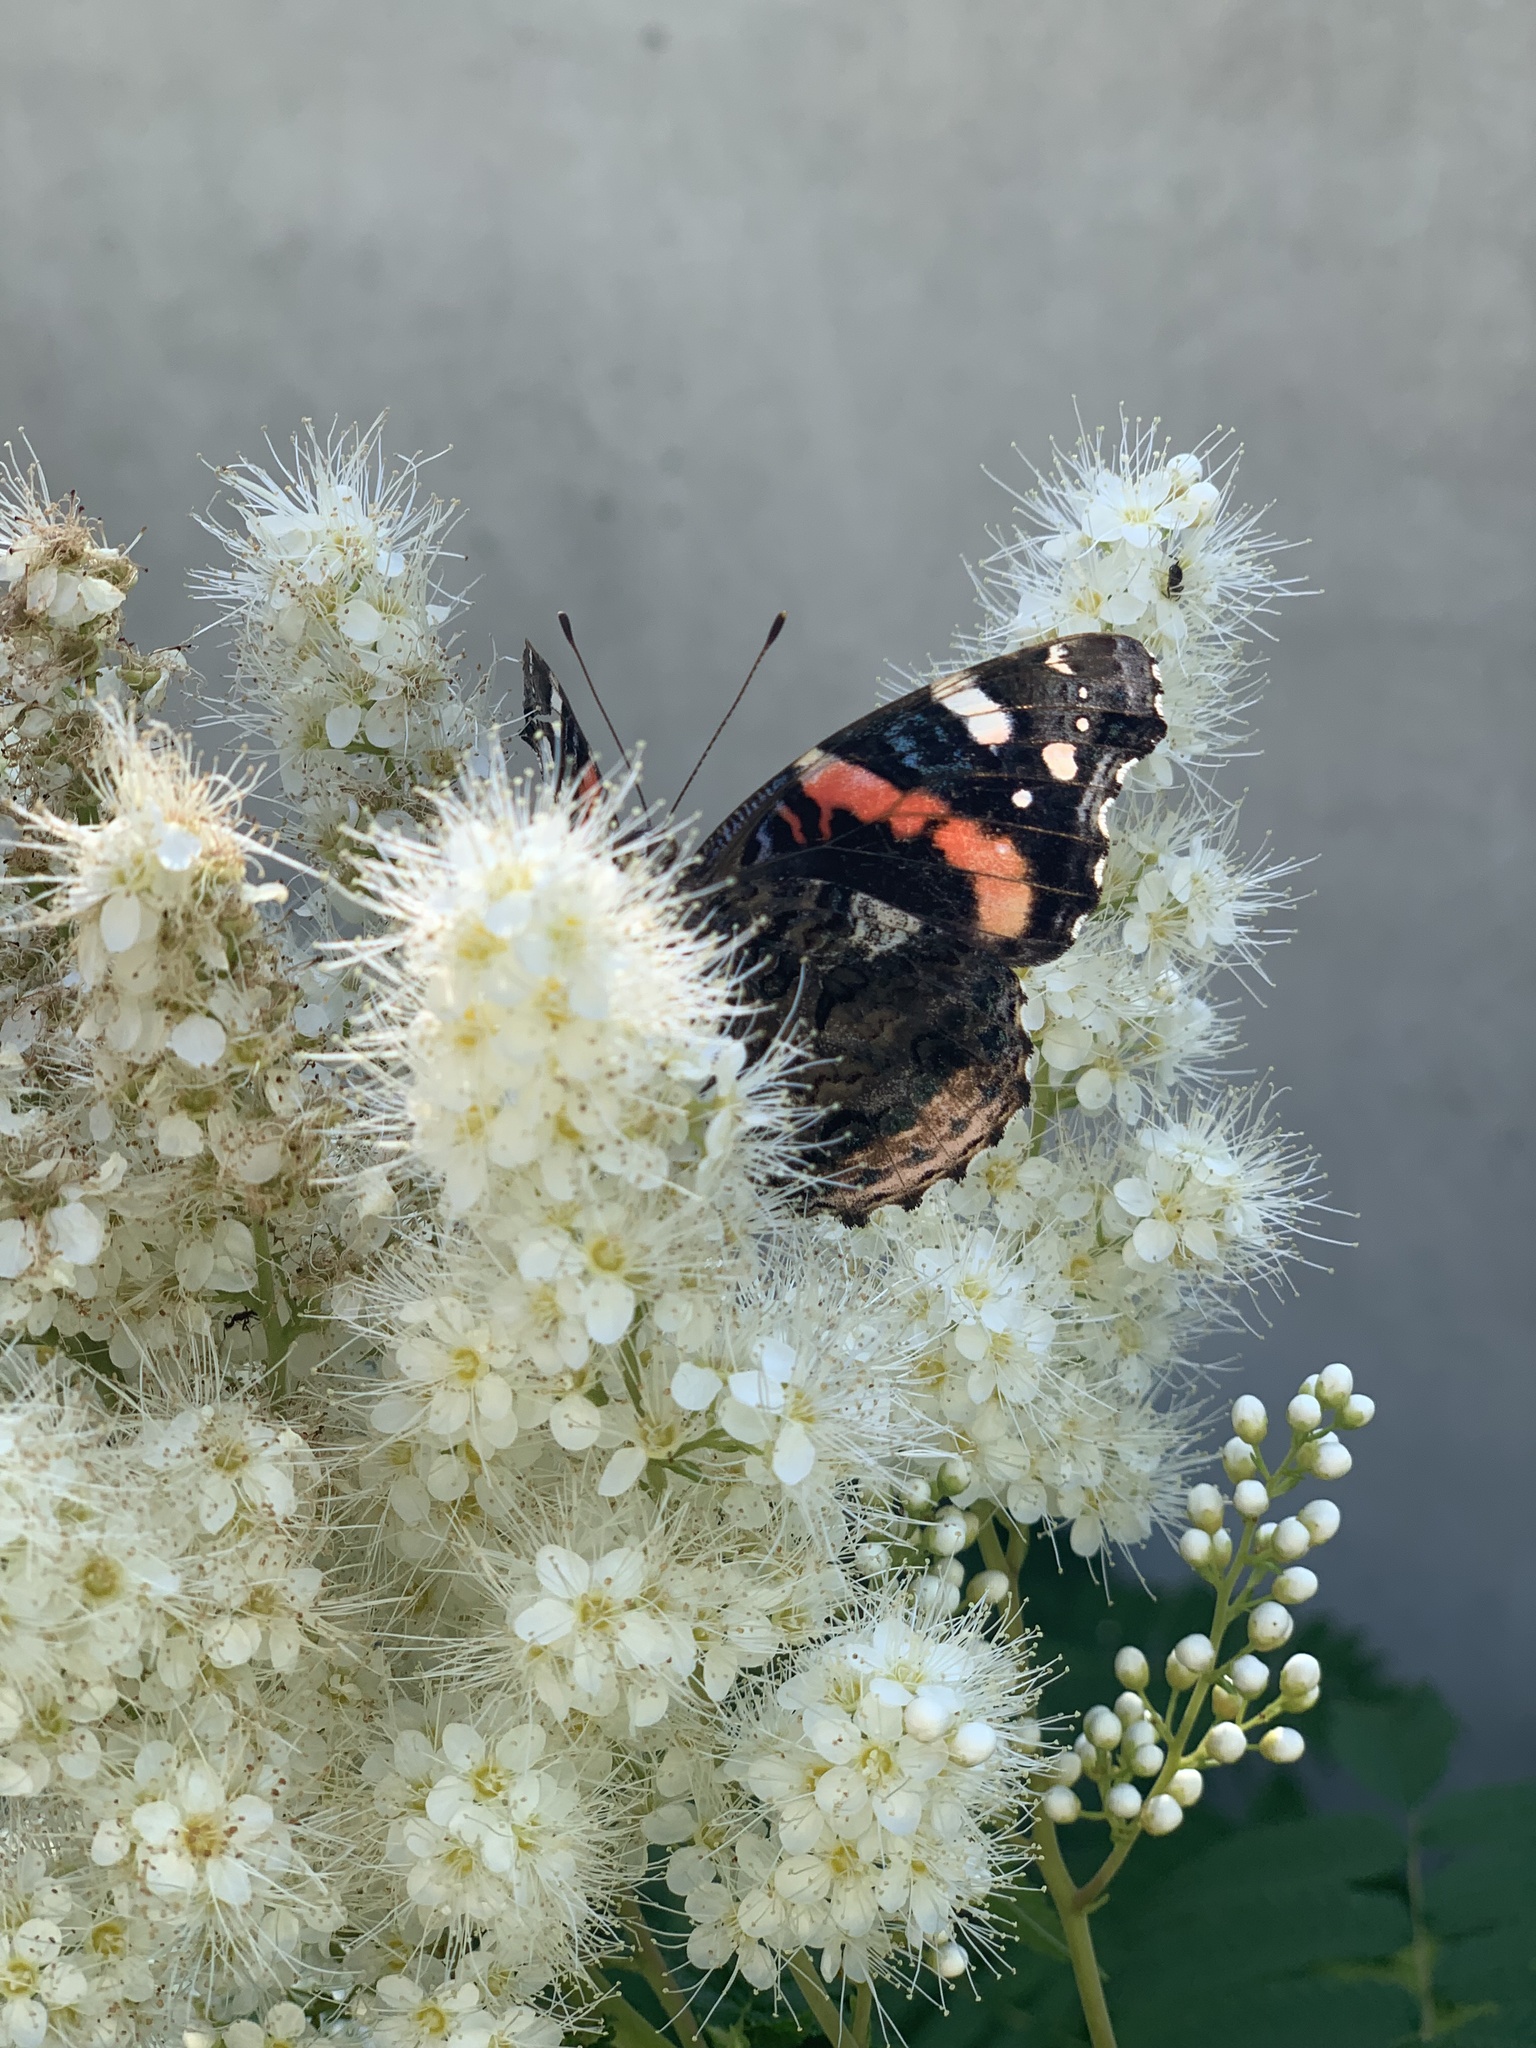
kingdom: Animalia
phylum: Arthropoda
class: Insecta
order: Lepidoptera
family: Nymphalidae
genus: Vanessa
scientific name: Vanessa atalanta
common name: Red admiral
